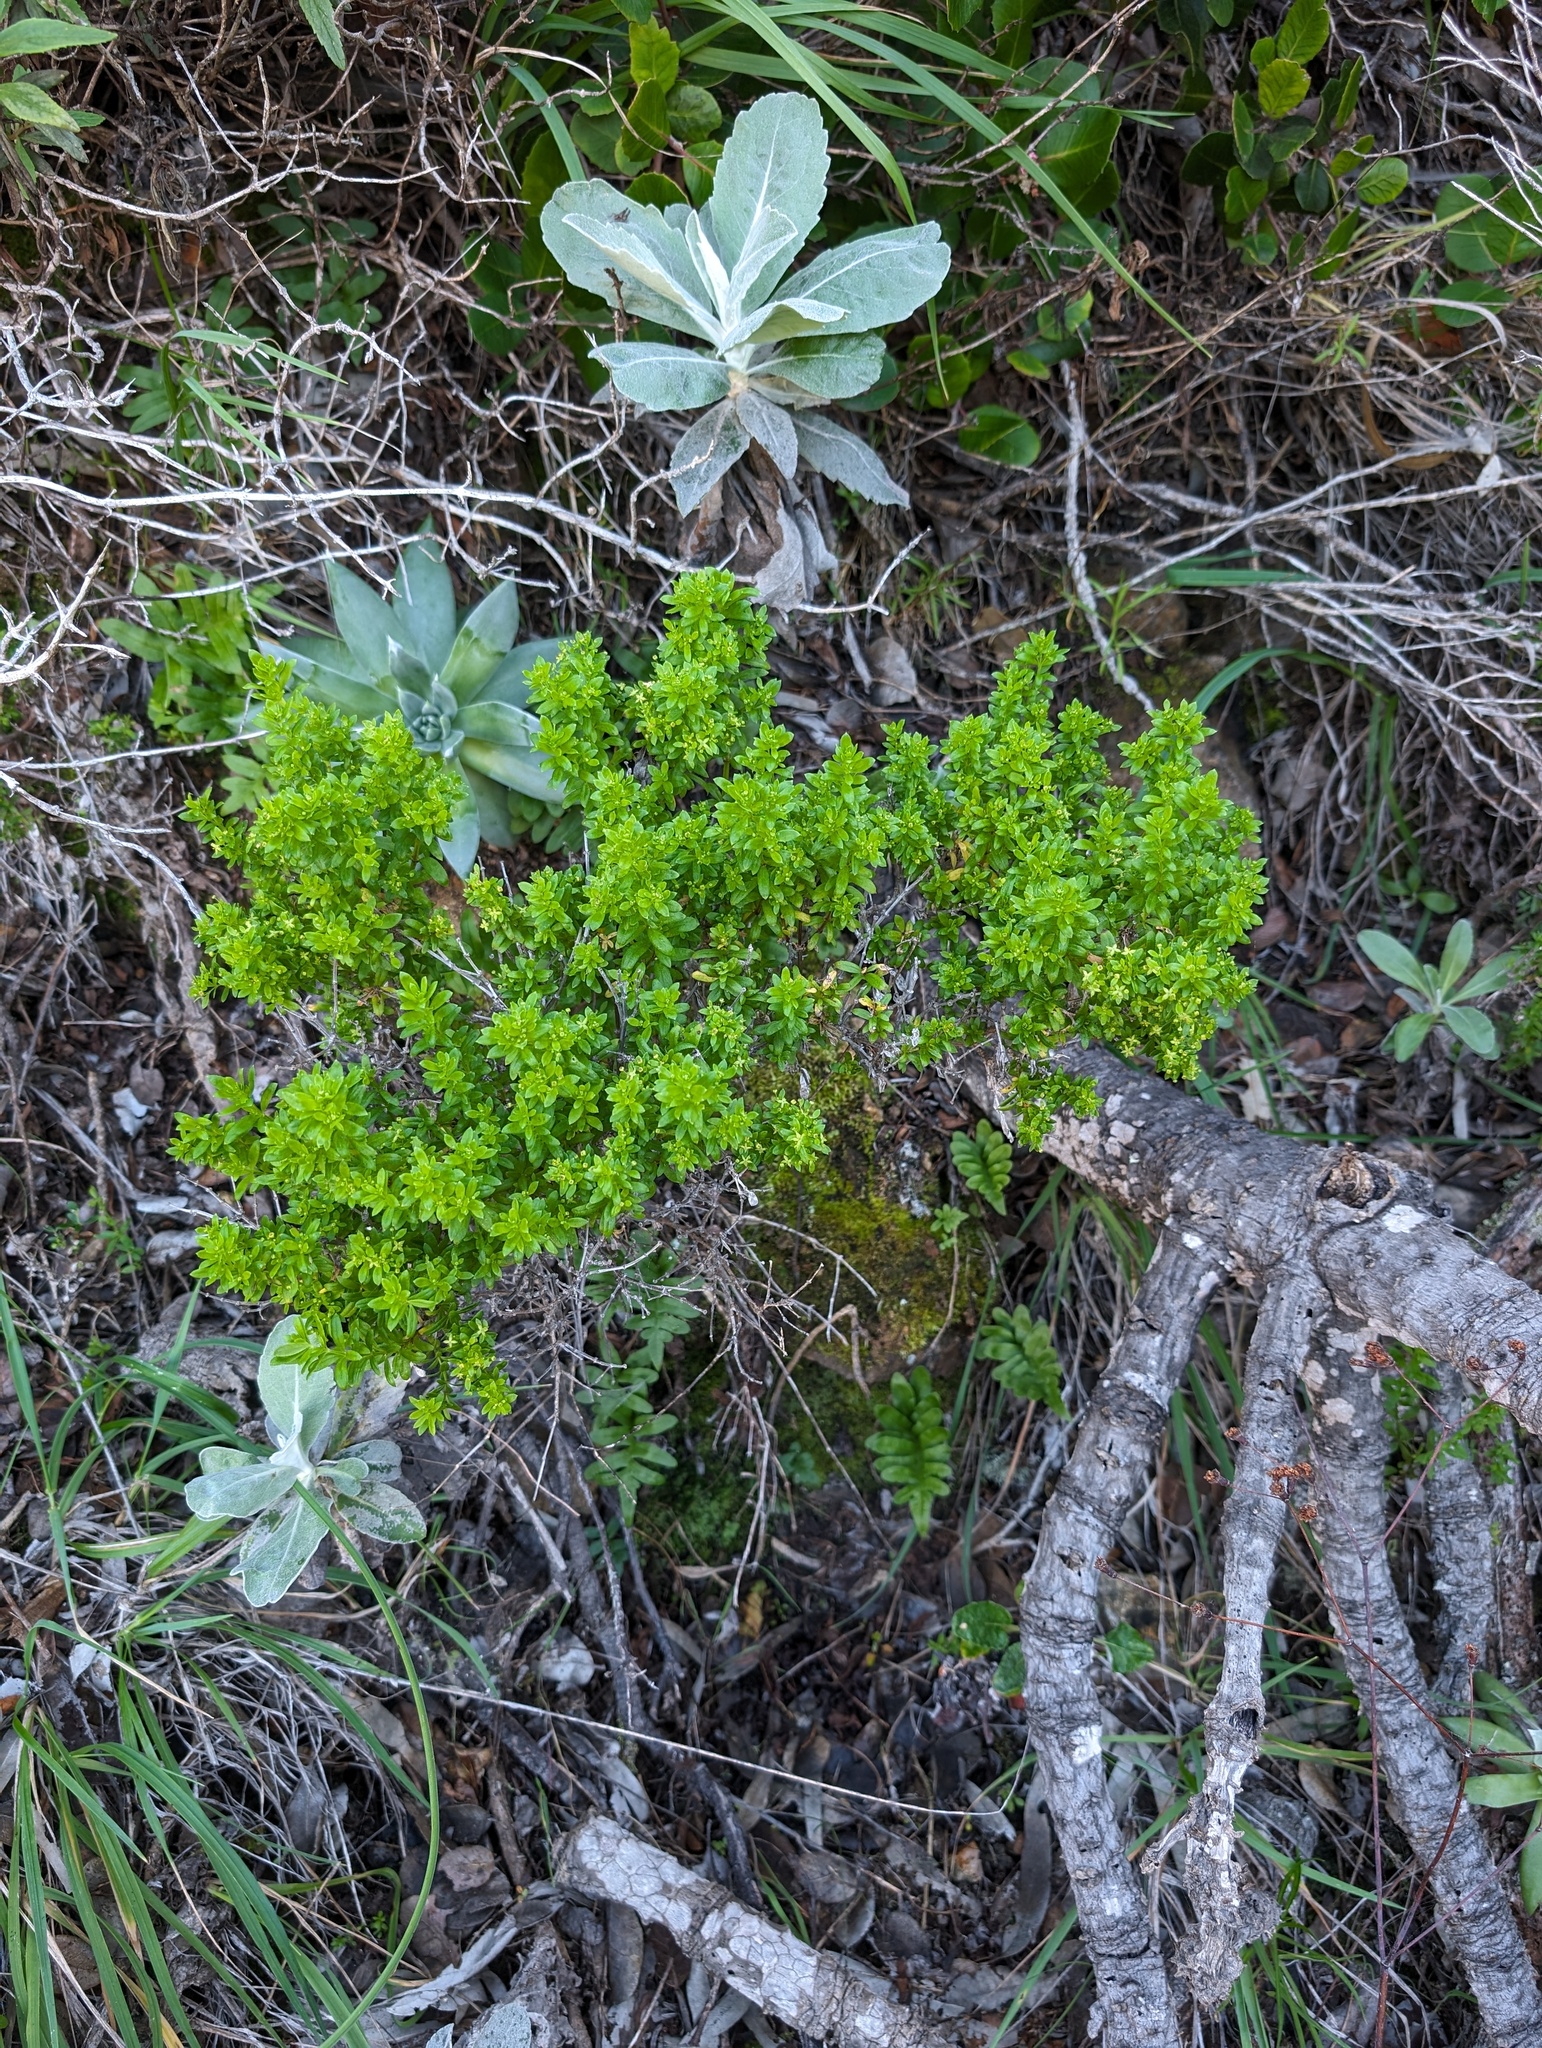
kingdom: Plantae
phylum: Tracheophyta
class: Magnoliopsida
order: Gentianales
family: Rubiaceae
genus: Galium
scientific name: Galium buxifolium
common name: Box bedstraw
